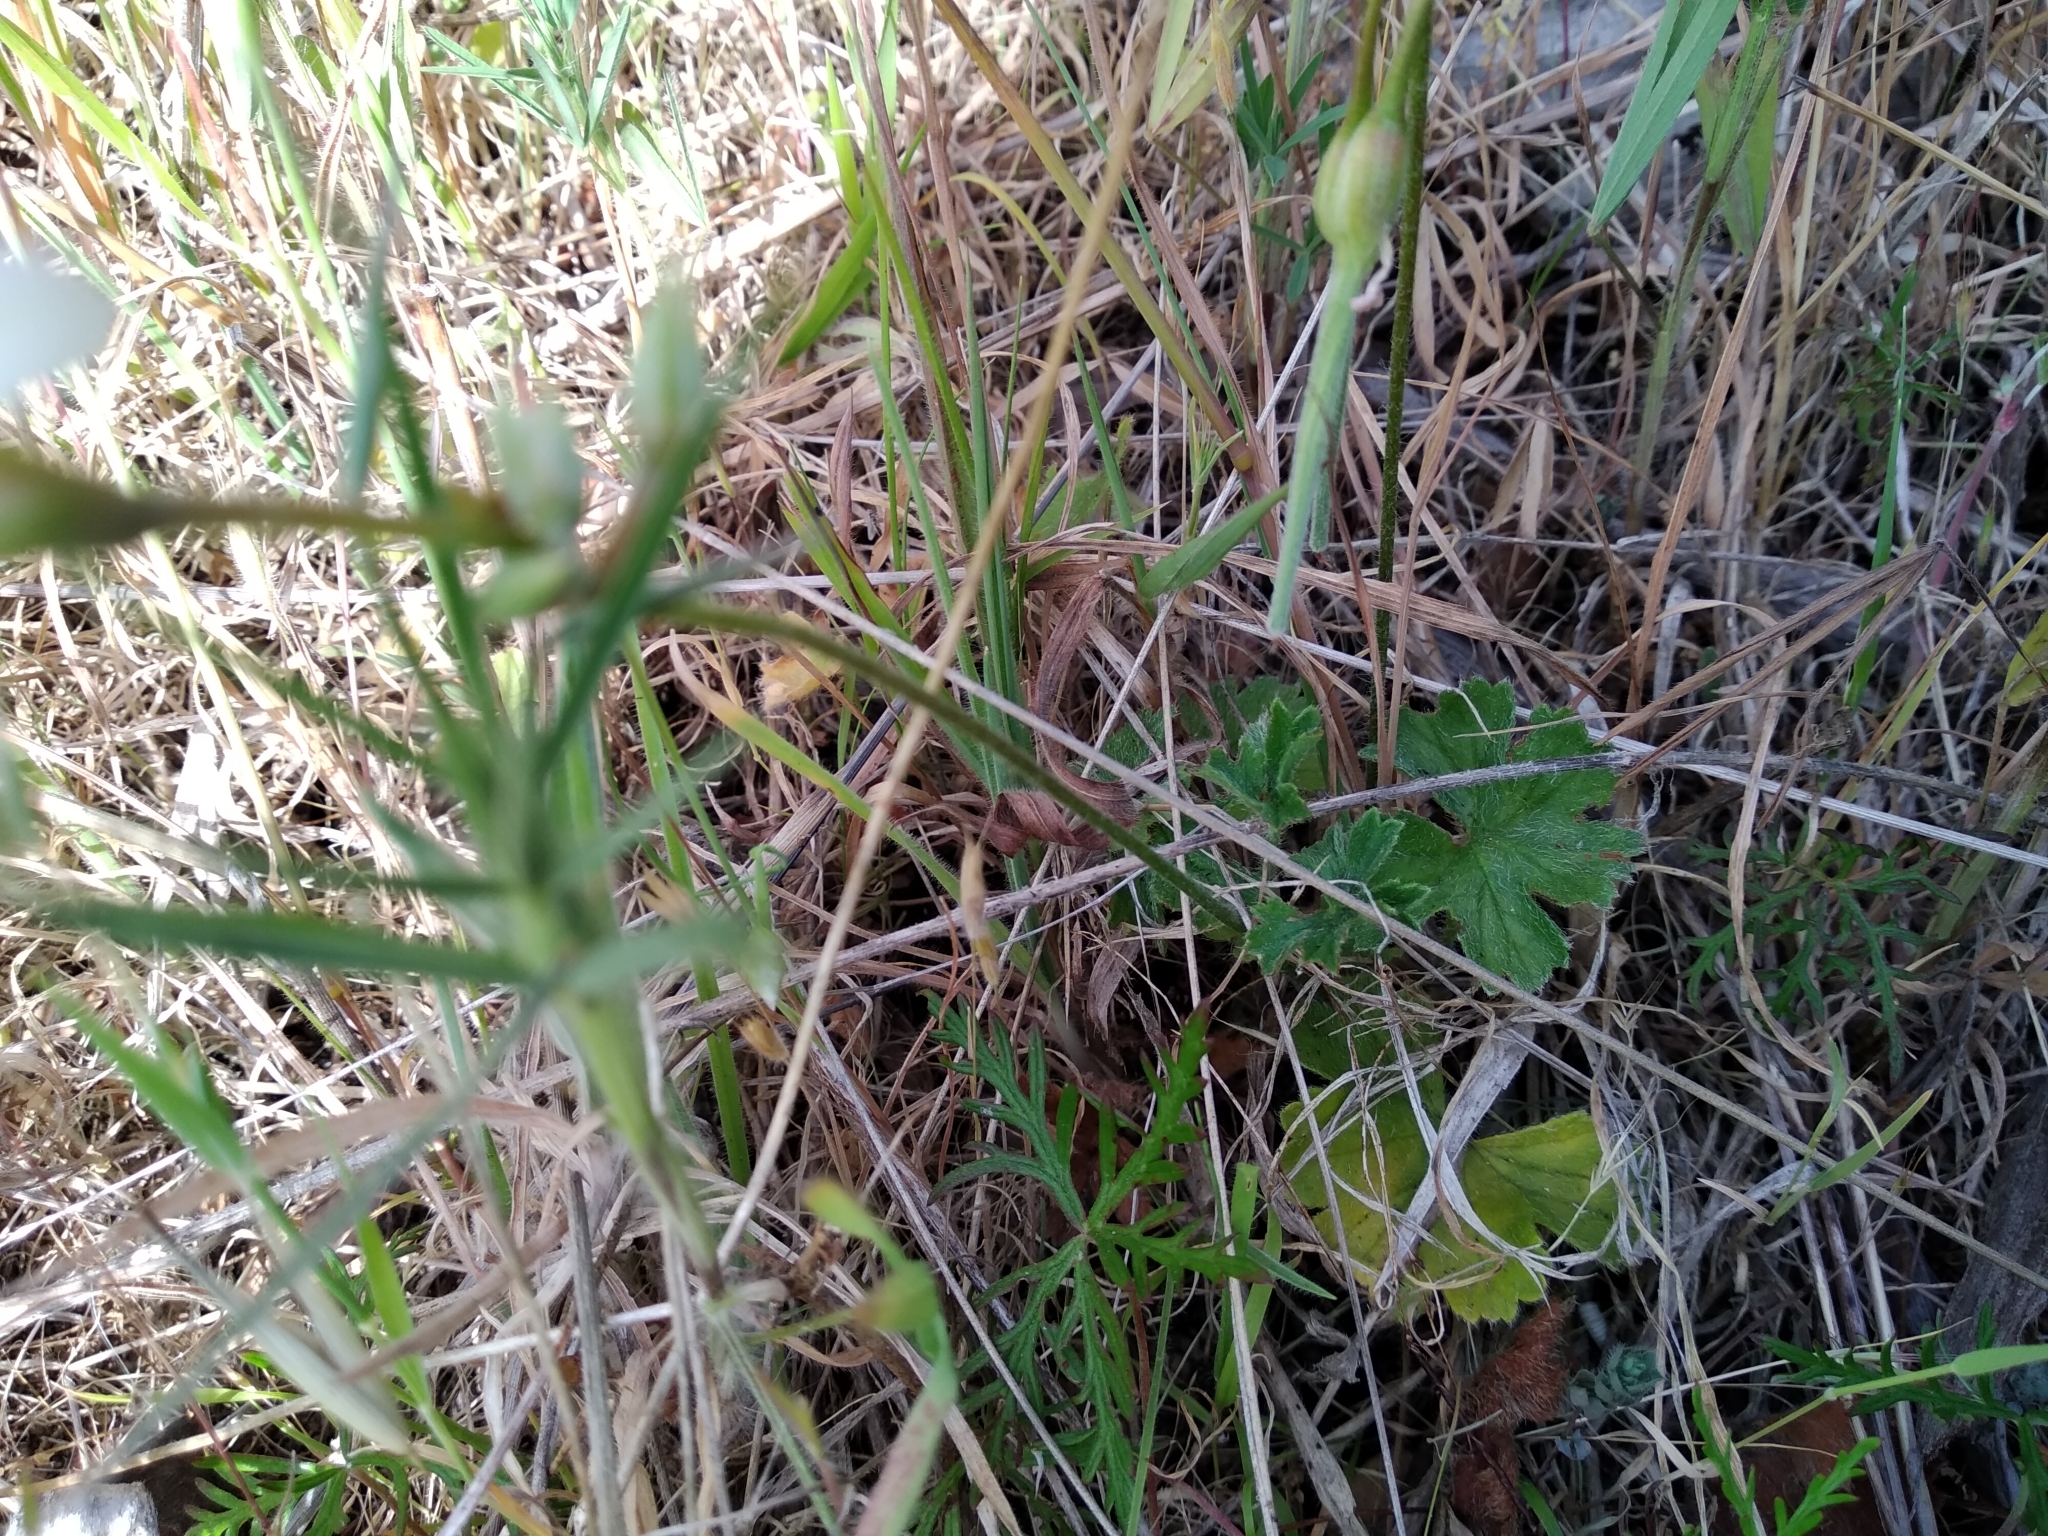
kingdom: Plantae
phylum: Tracheophyta
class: Magnoliopsida
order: Geraniales
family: Geraniaceae
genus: Pelargonium
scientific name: Pelargonium alchemilloides
